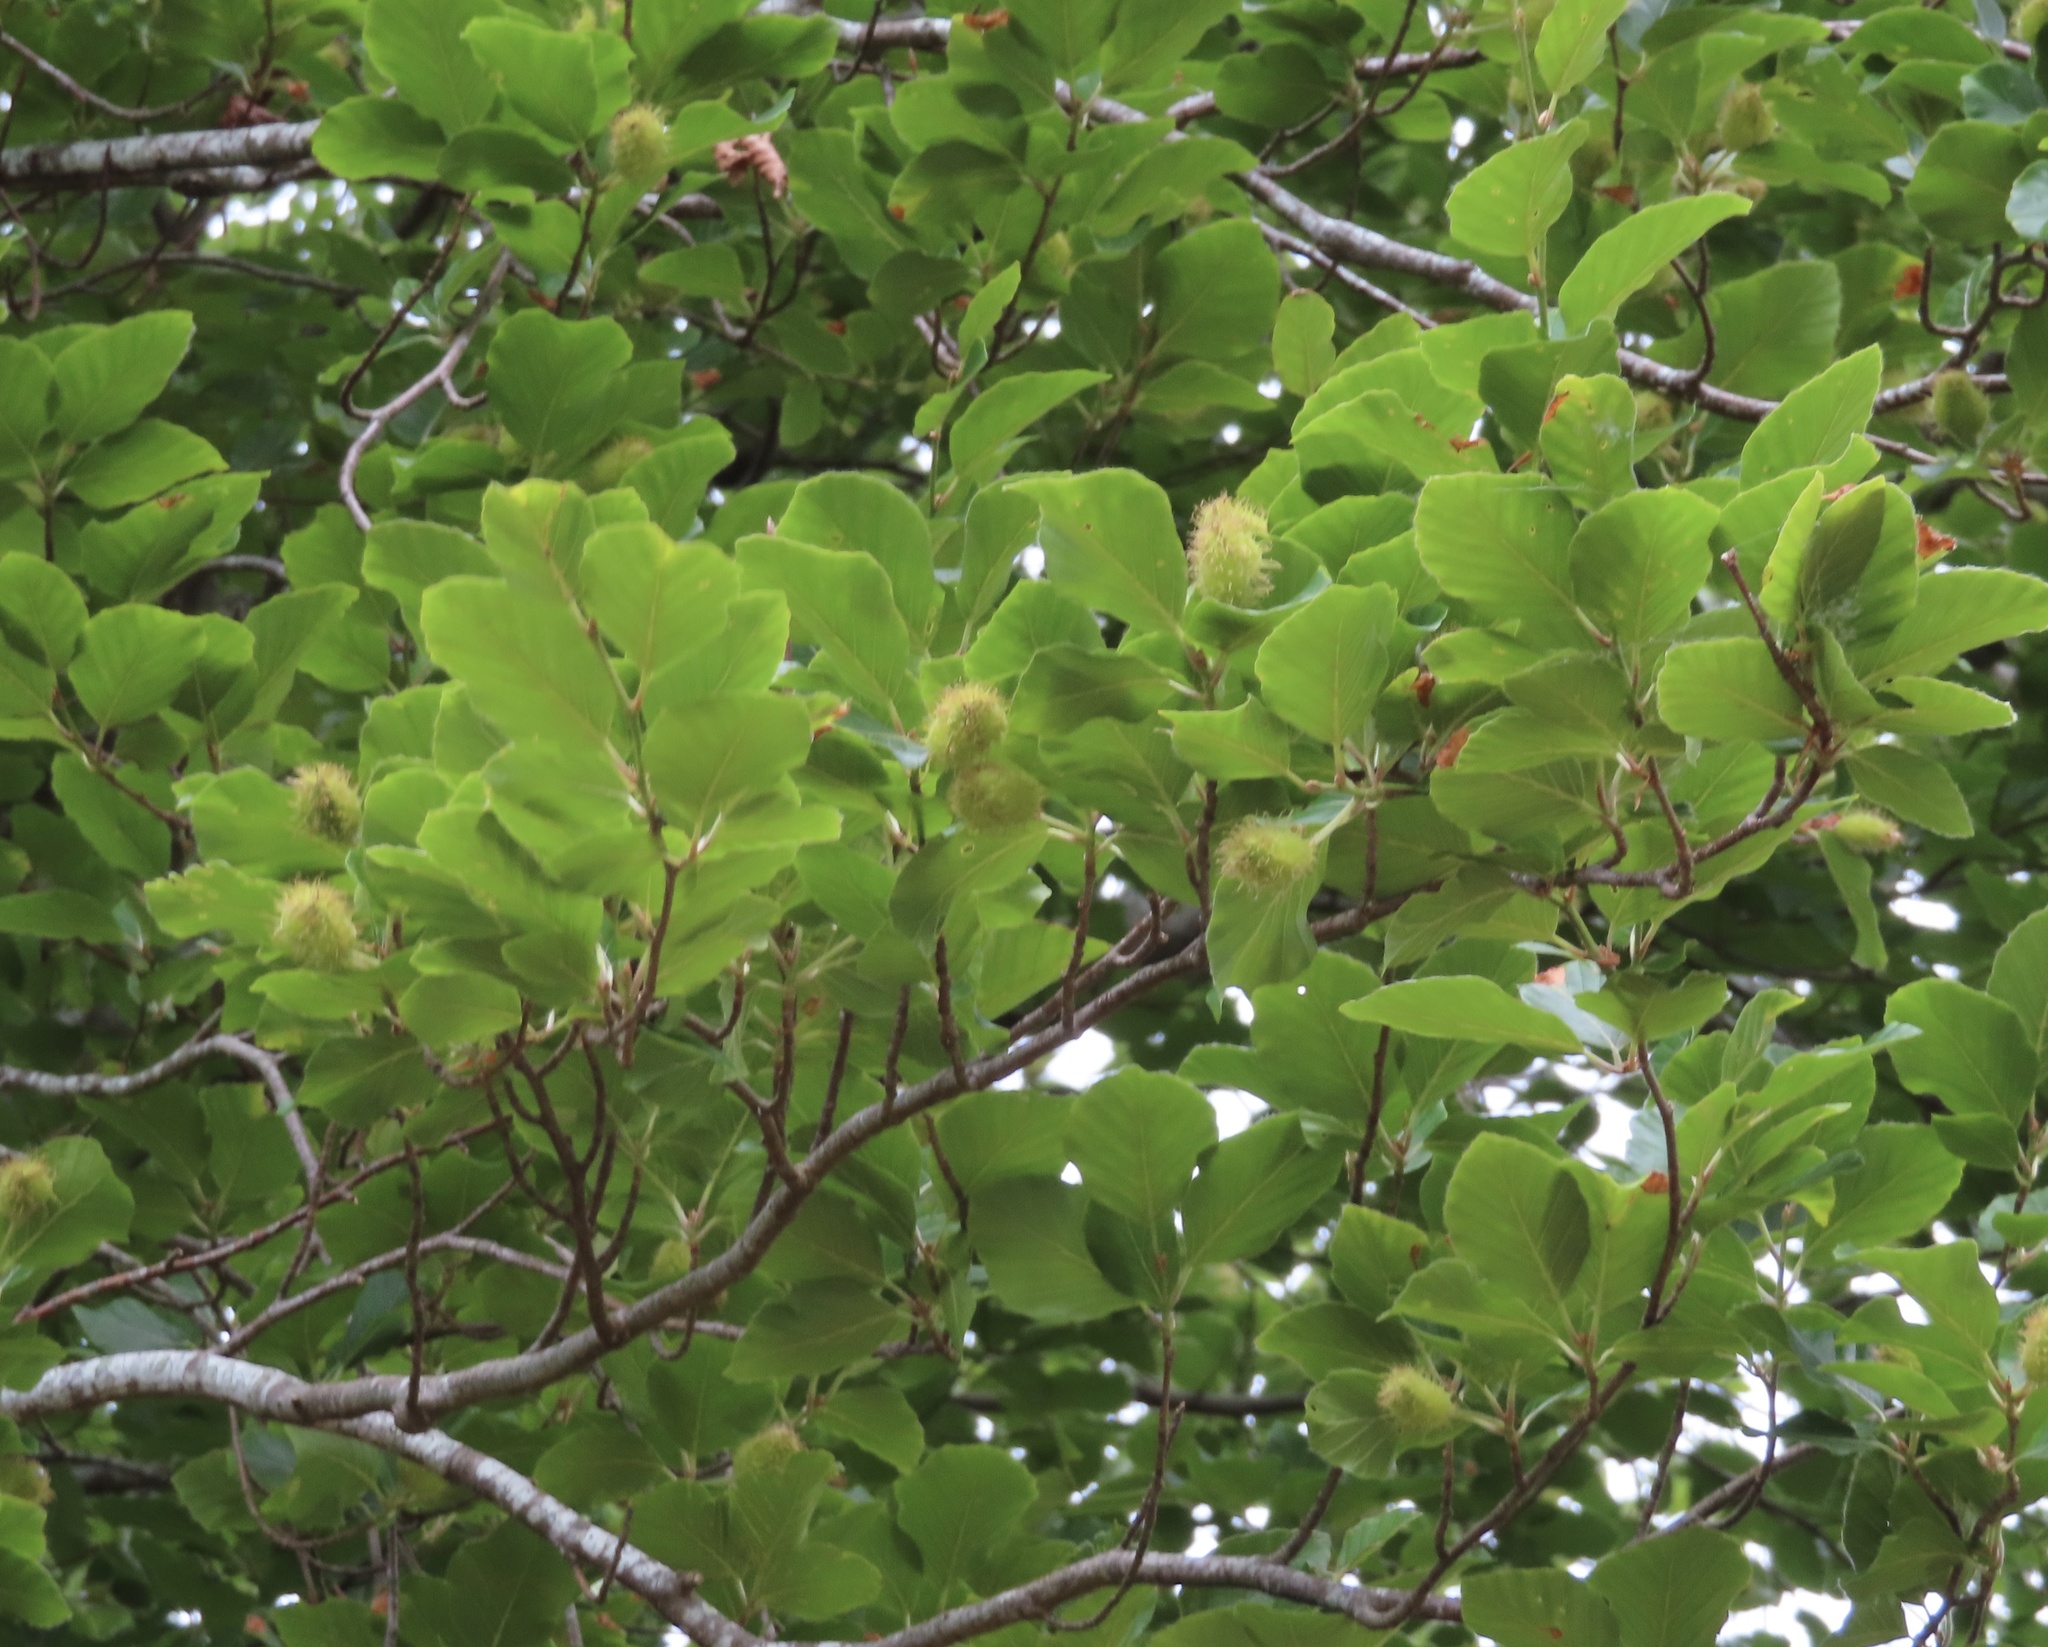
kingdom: Plantae
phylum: Tracheophyta
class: Magnoliopsida
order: Fagales
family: Fagaceae
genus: Fagus
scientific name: Fagus sylvatica
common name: Beech
